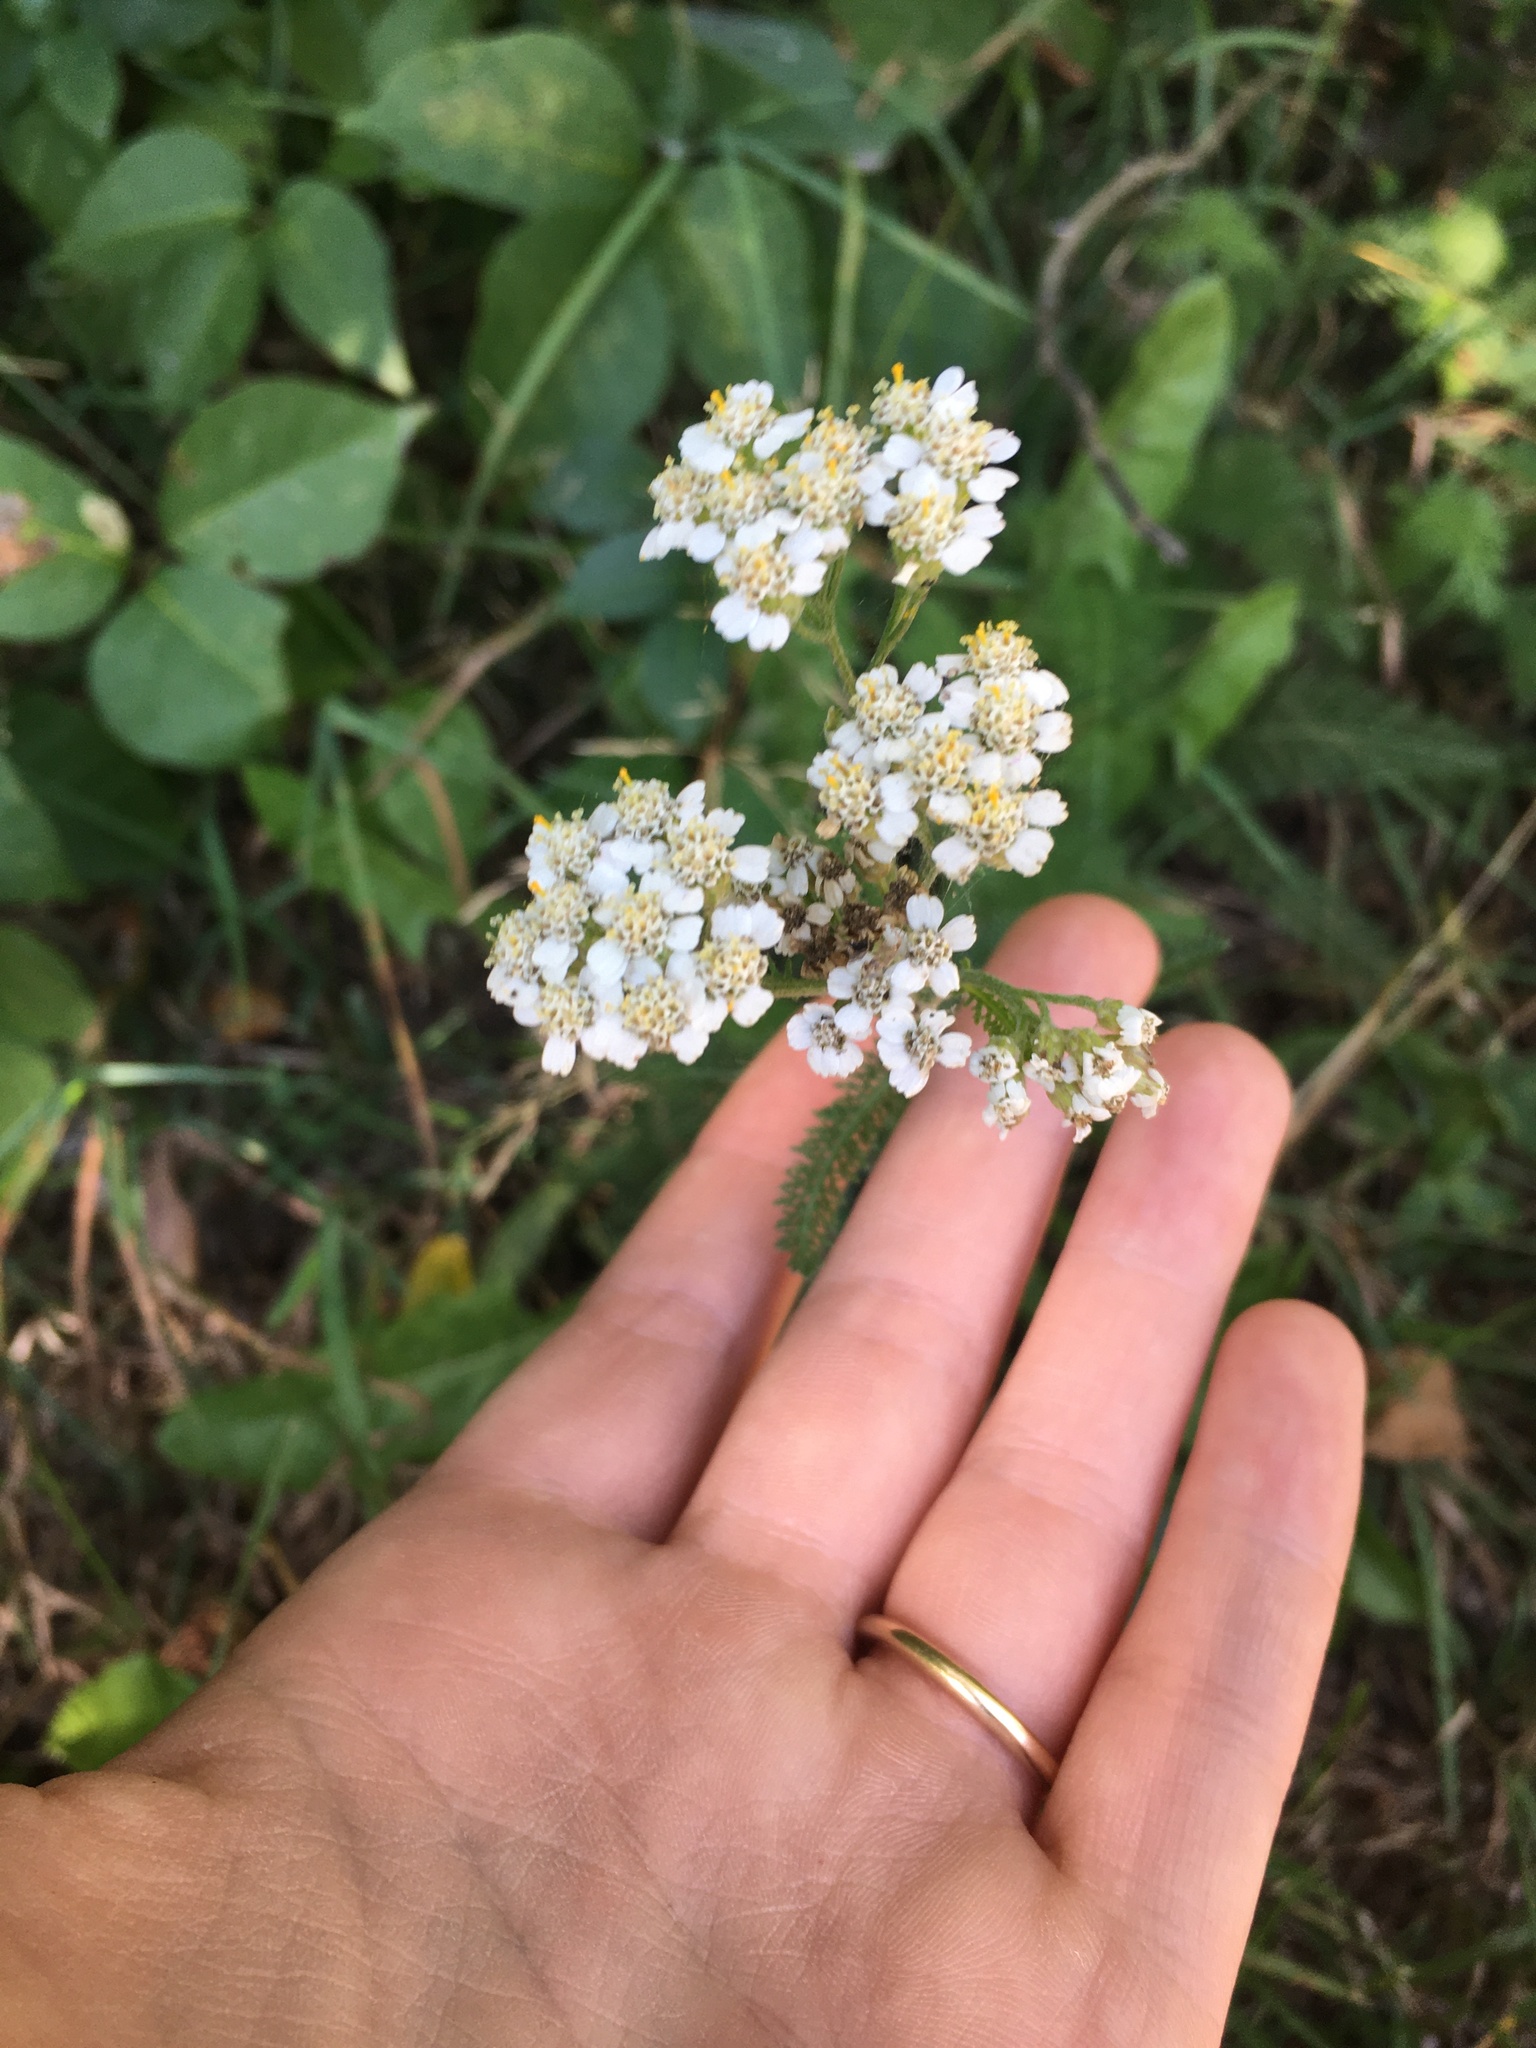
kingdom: Plantae
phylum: Tracheophyta
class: Magnoliopsida
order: Asterales
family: Asteraceae
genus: Achillea
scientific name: Achillea millefolium
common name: Yarrow
